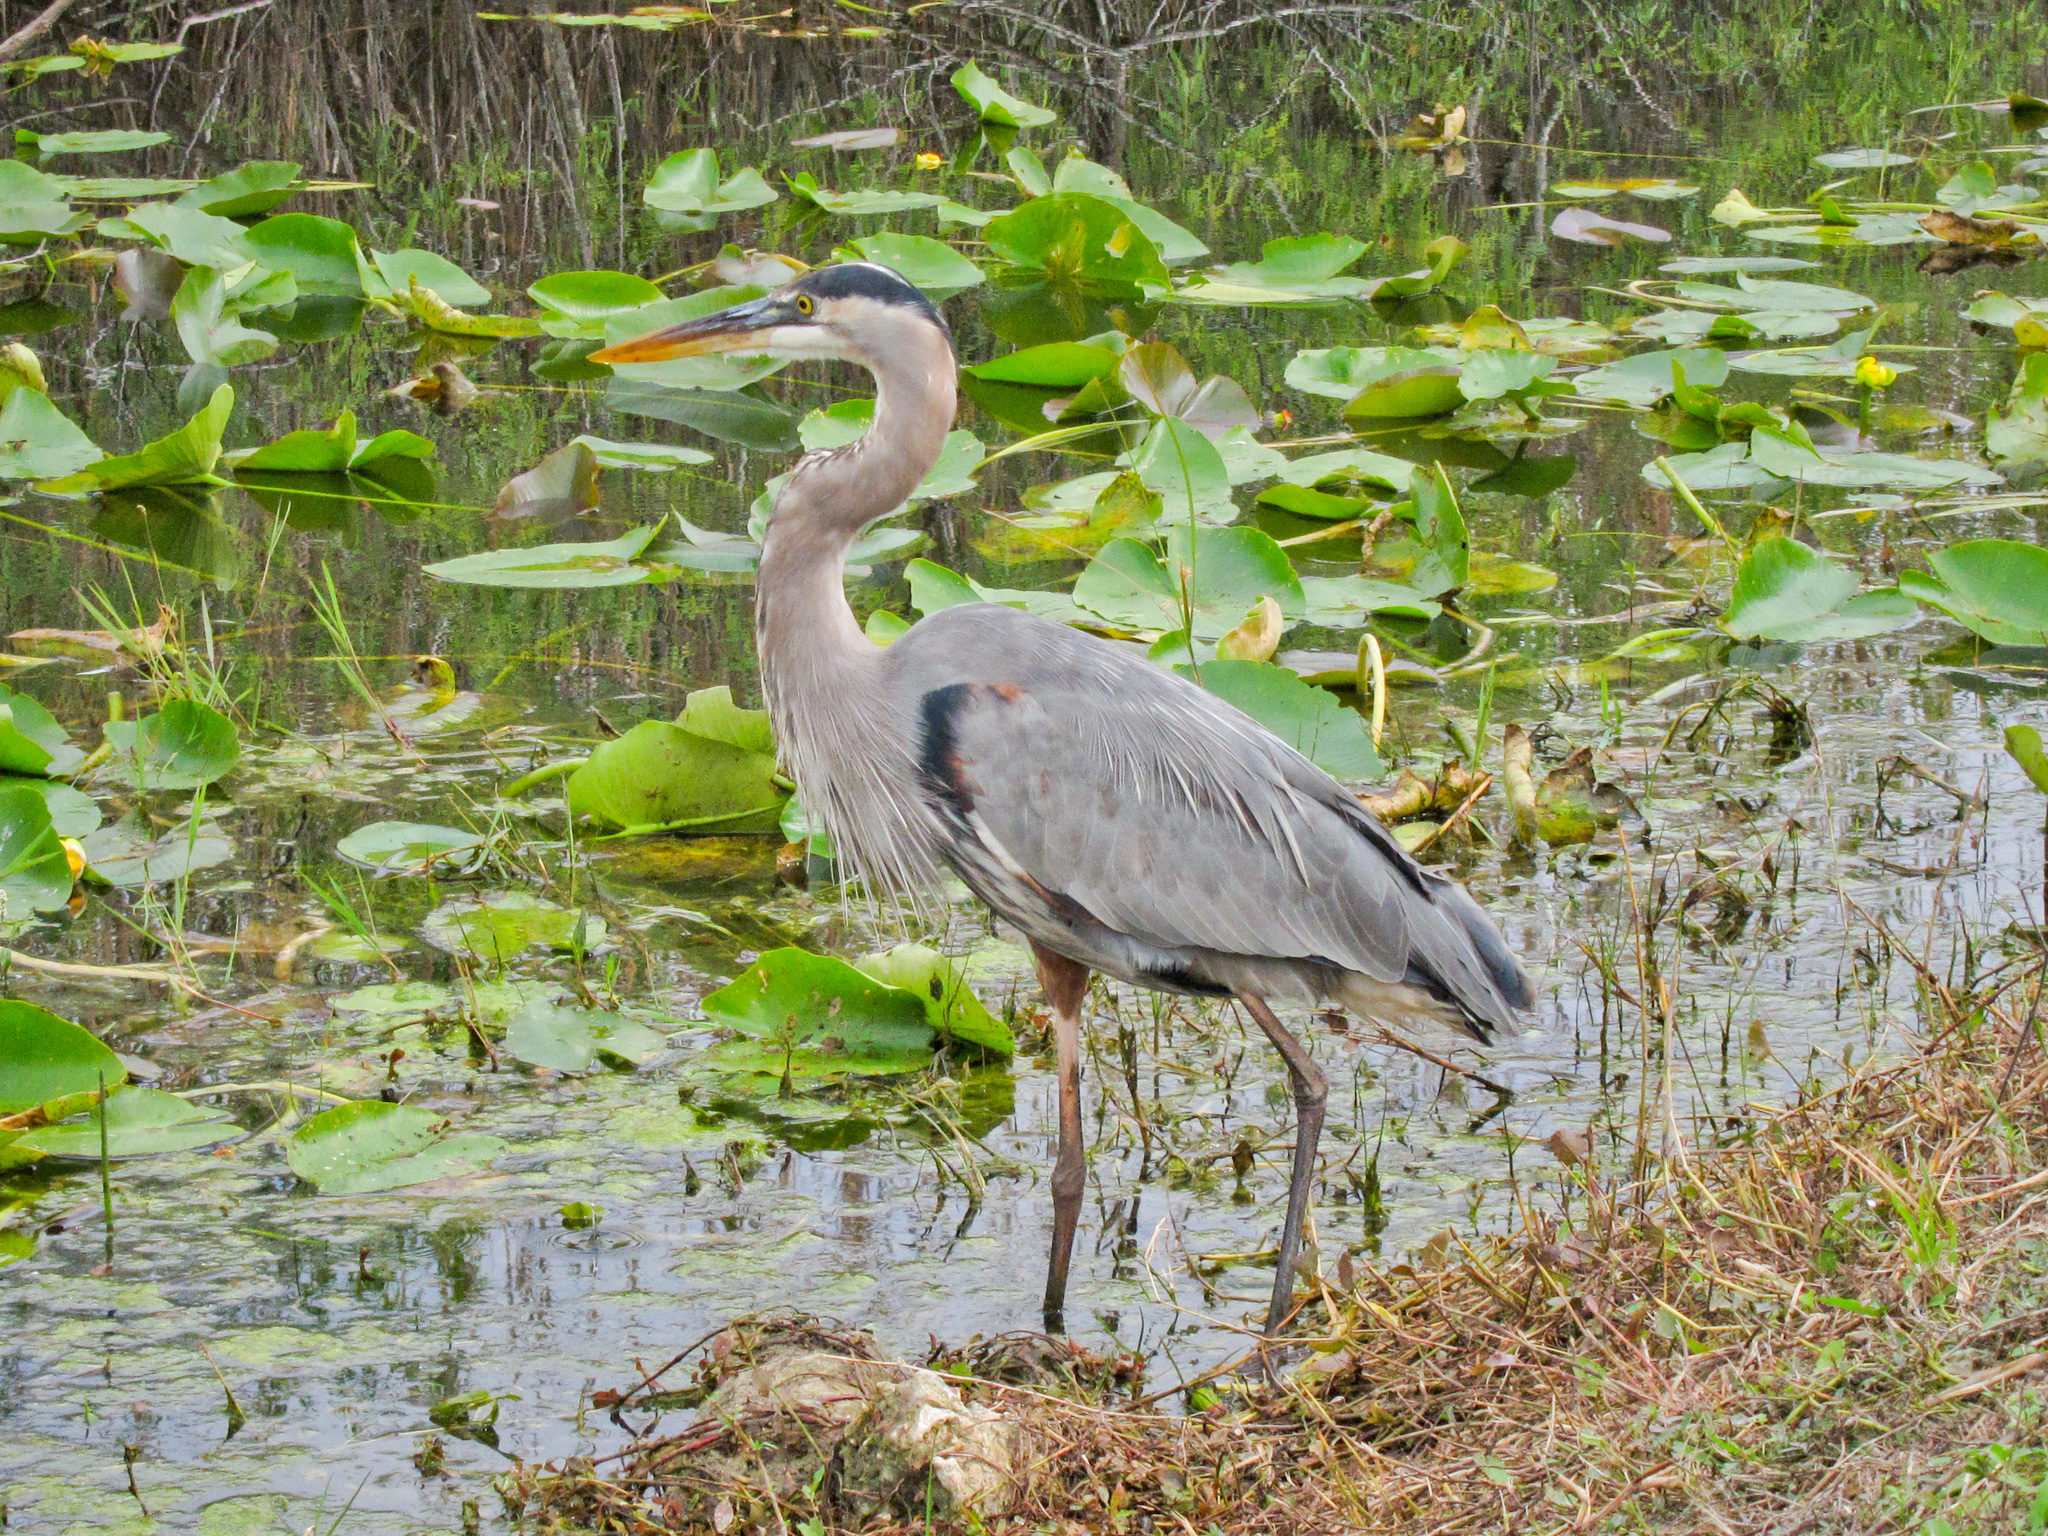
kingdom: Animalia
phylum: Chordata
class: Aves
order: Pelecaniformes
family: Ardeidae
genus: Ardea
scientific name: Ardea herodias
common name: Great blue heron
